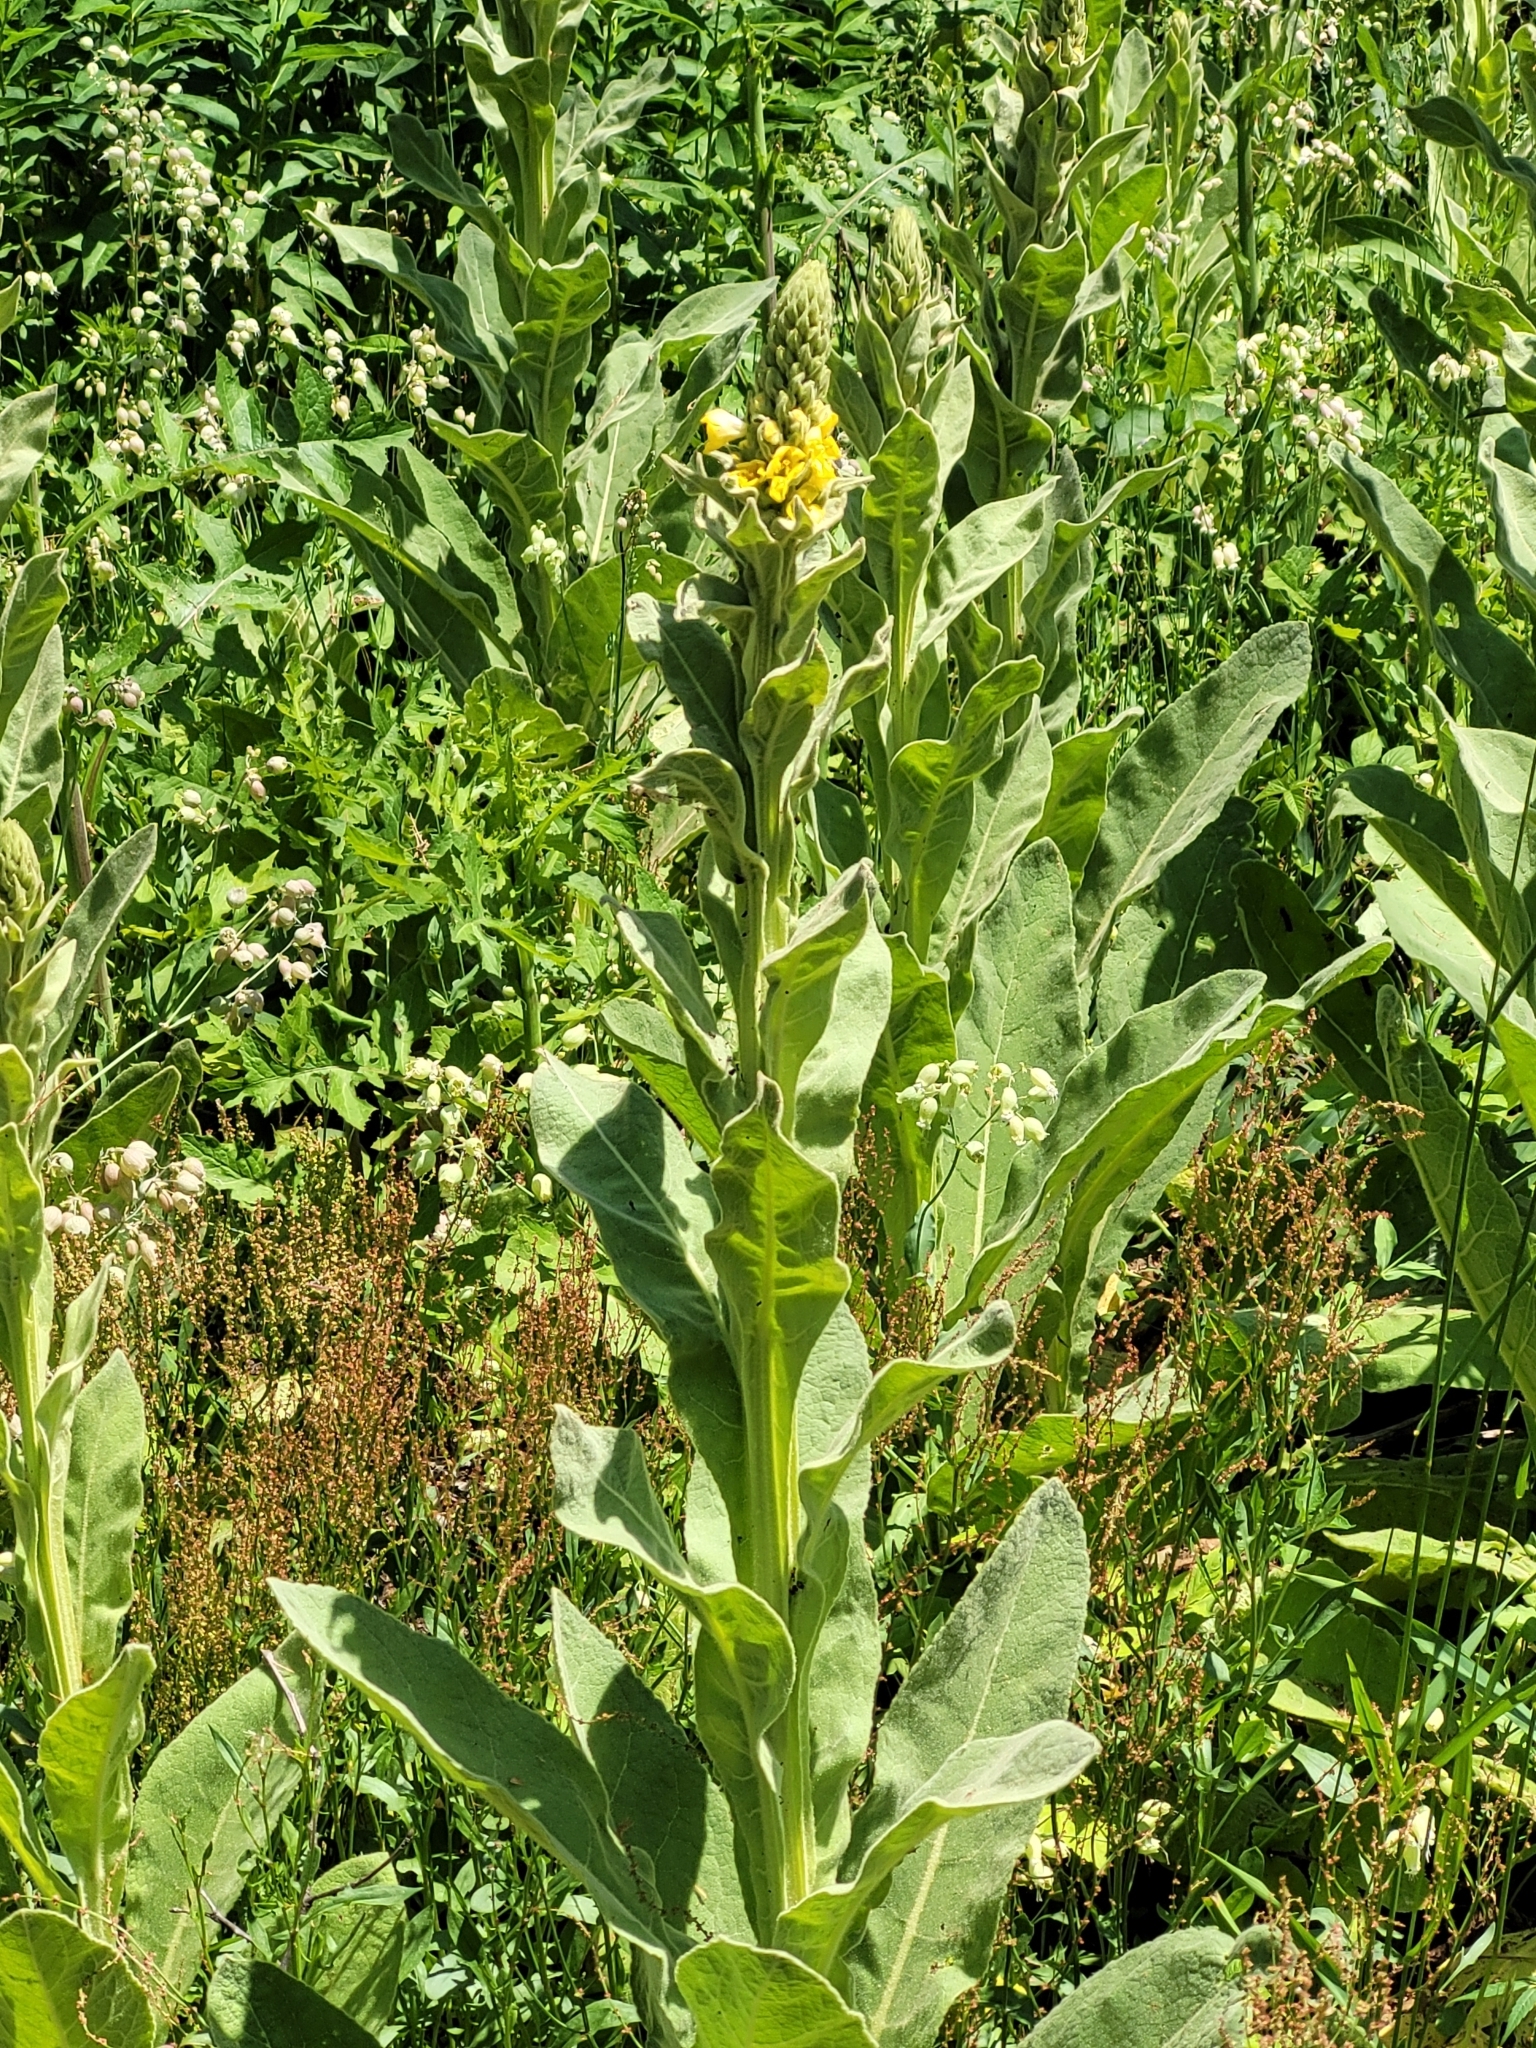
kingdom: Plantae
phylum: Tracheophyta
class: Magnoliopsida
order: Lamiales
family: Scrophulariaceae
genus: Verbascum
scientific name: Verbascum thapsus
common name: Common mullein
